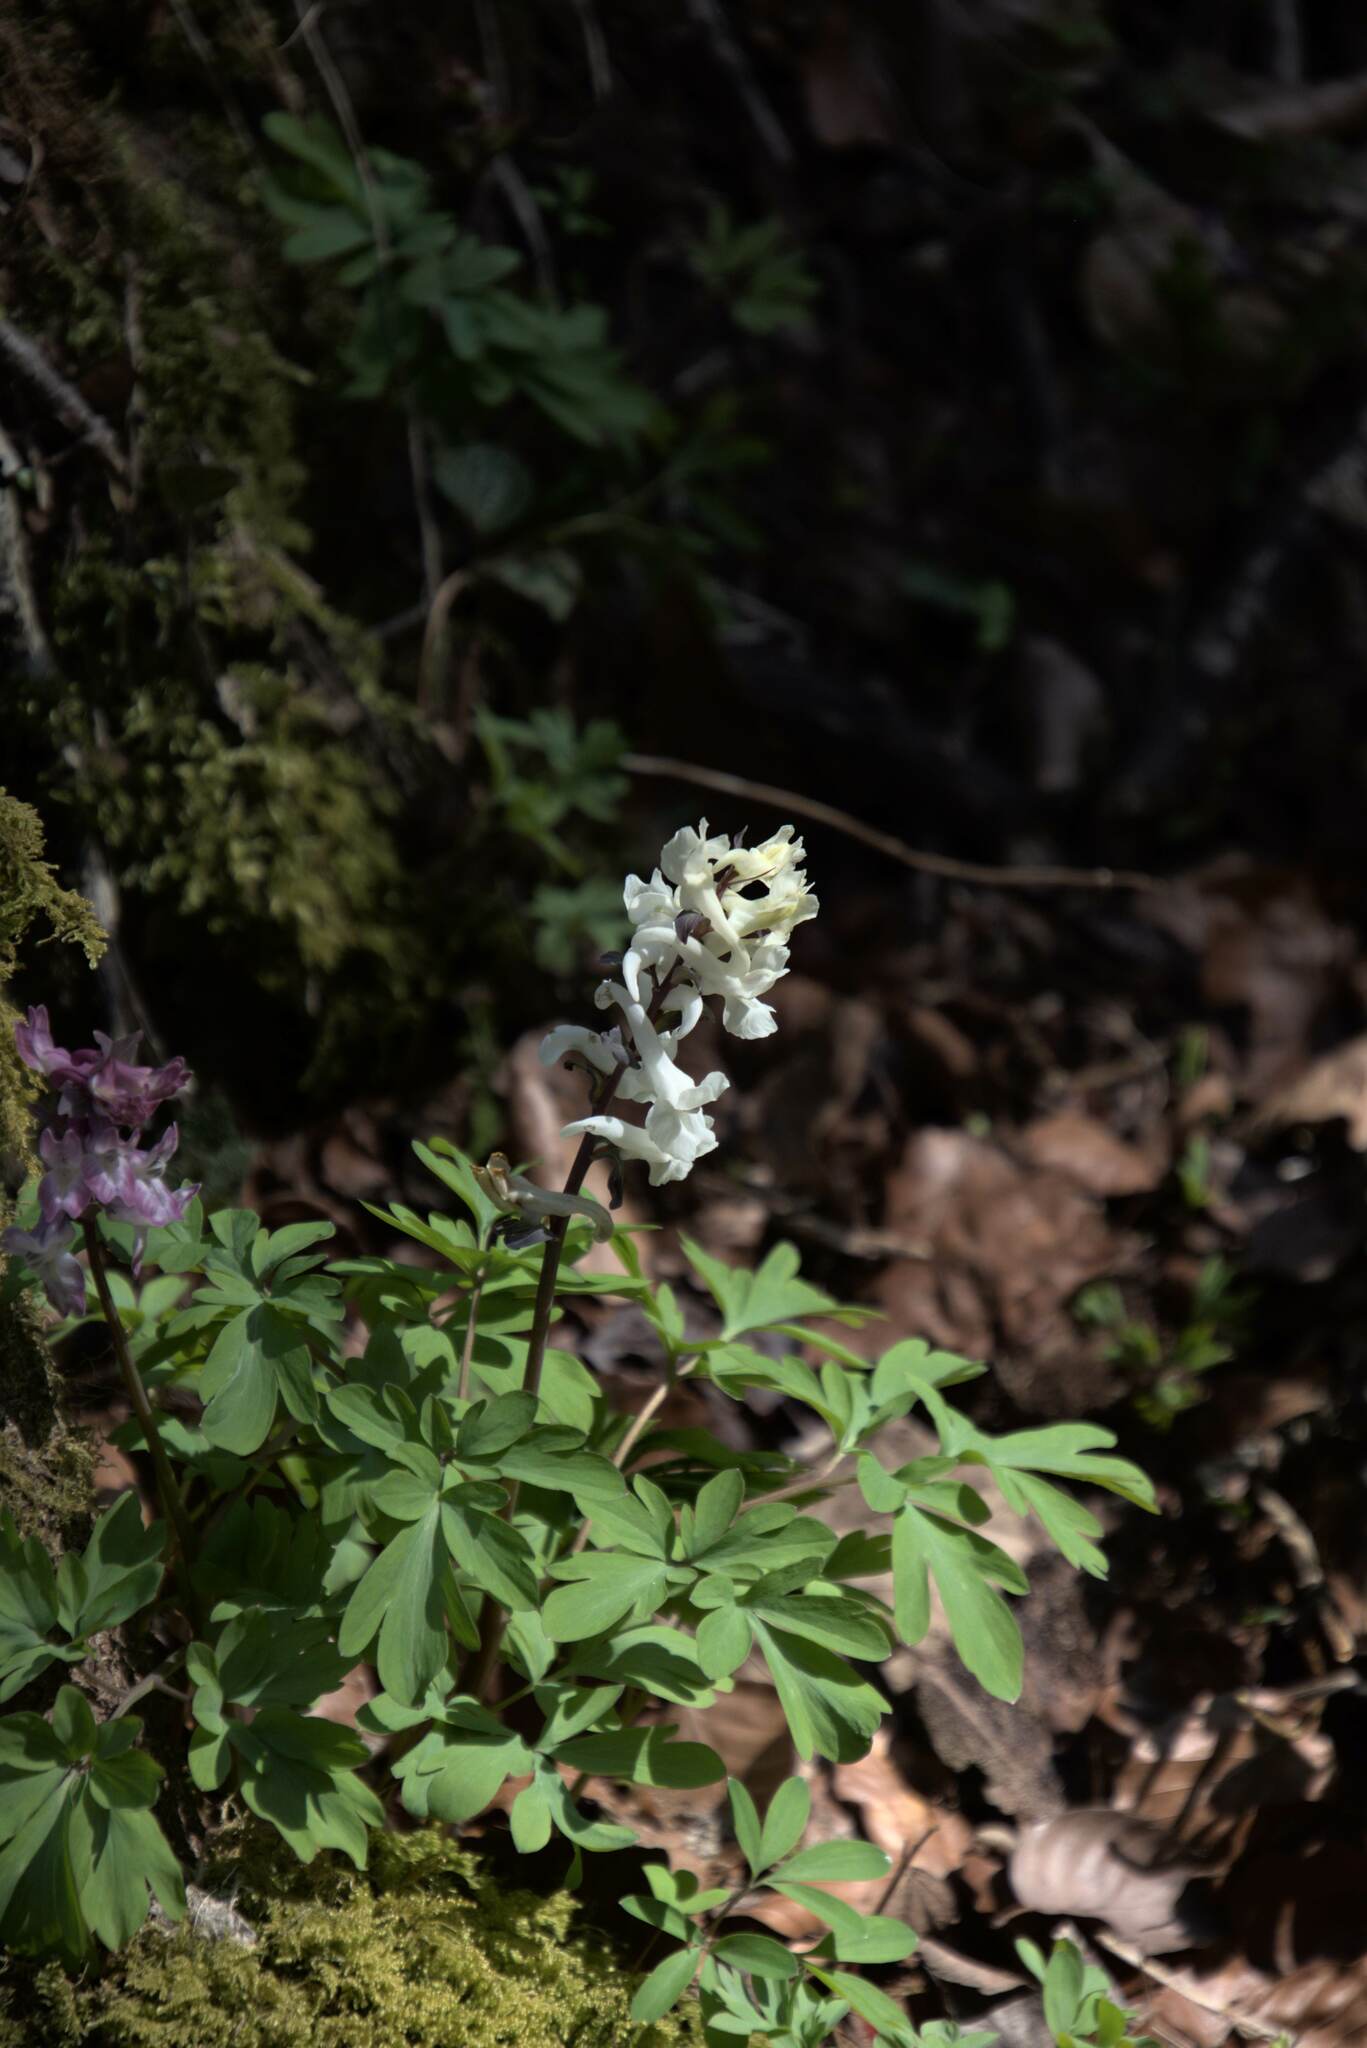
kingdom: Plantae
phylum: Tracheophyta
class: Magnoliopsida
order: Ranunculales
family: Papaveraceae
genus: Corydalis
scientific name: Corydalis cava
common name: Hollowroot
